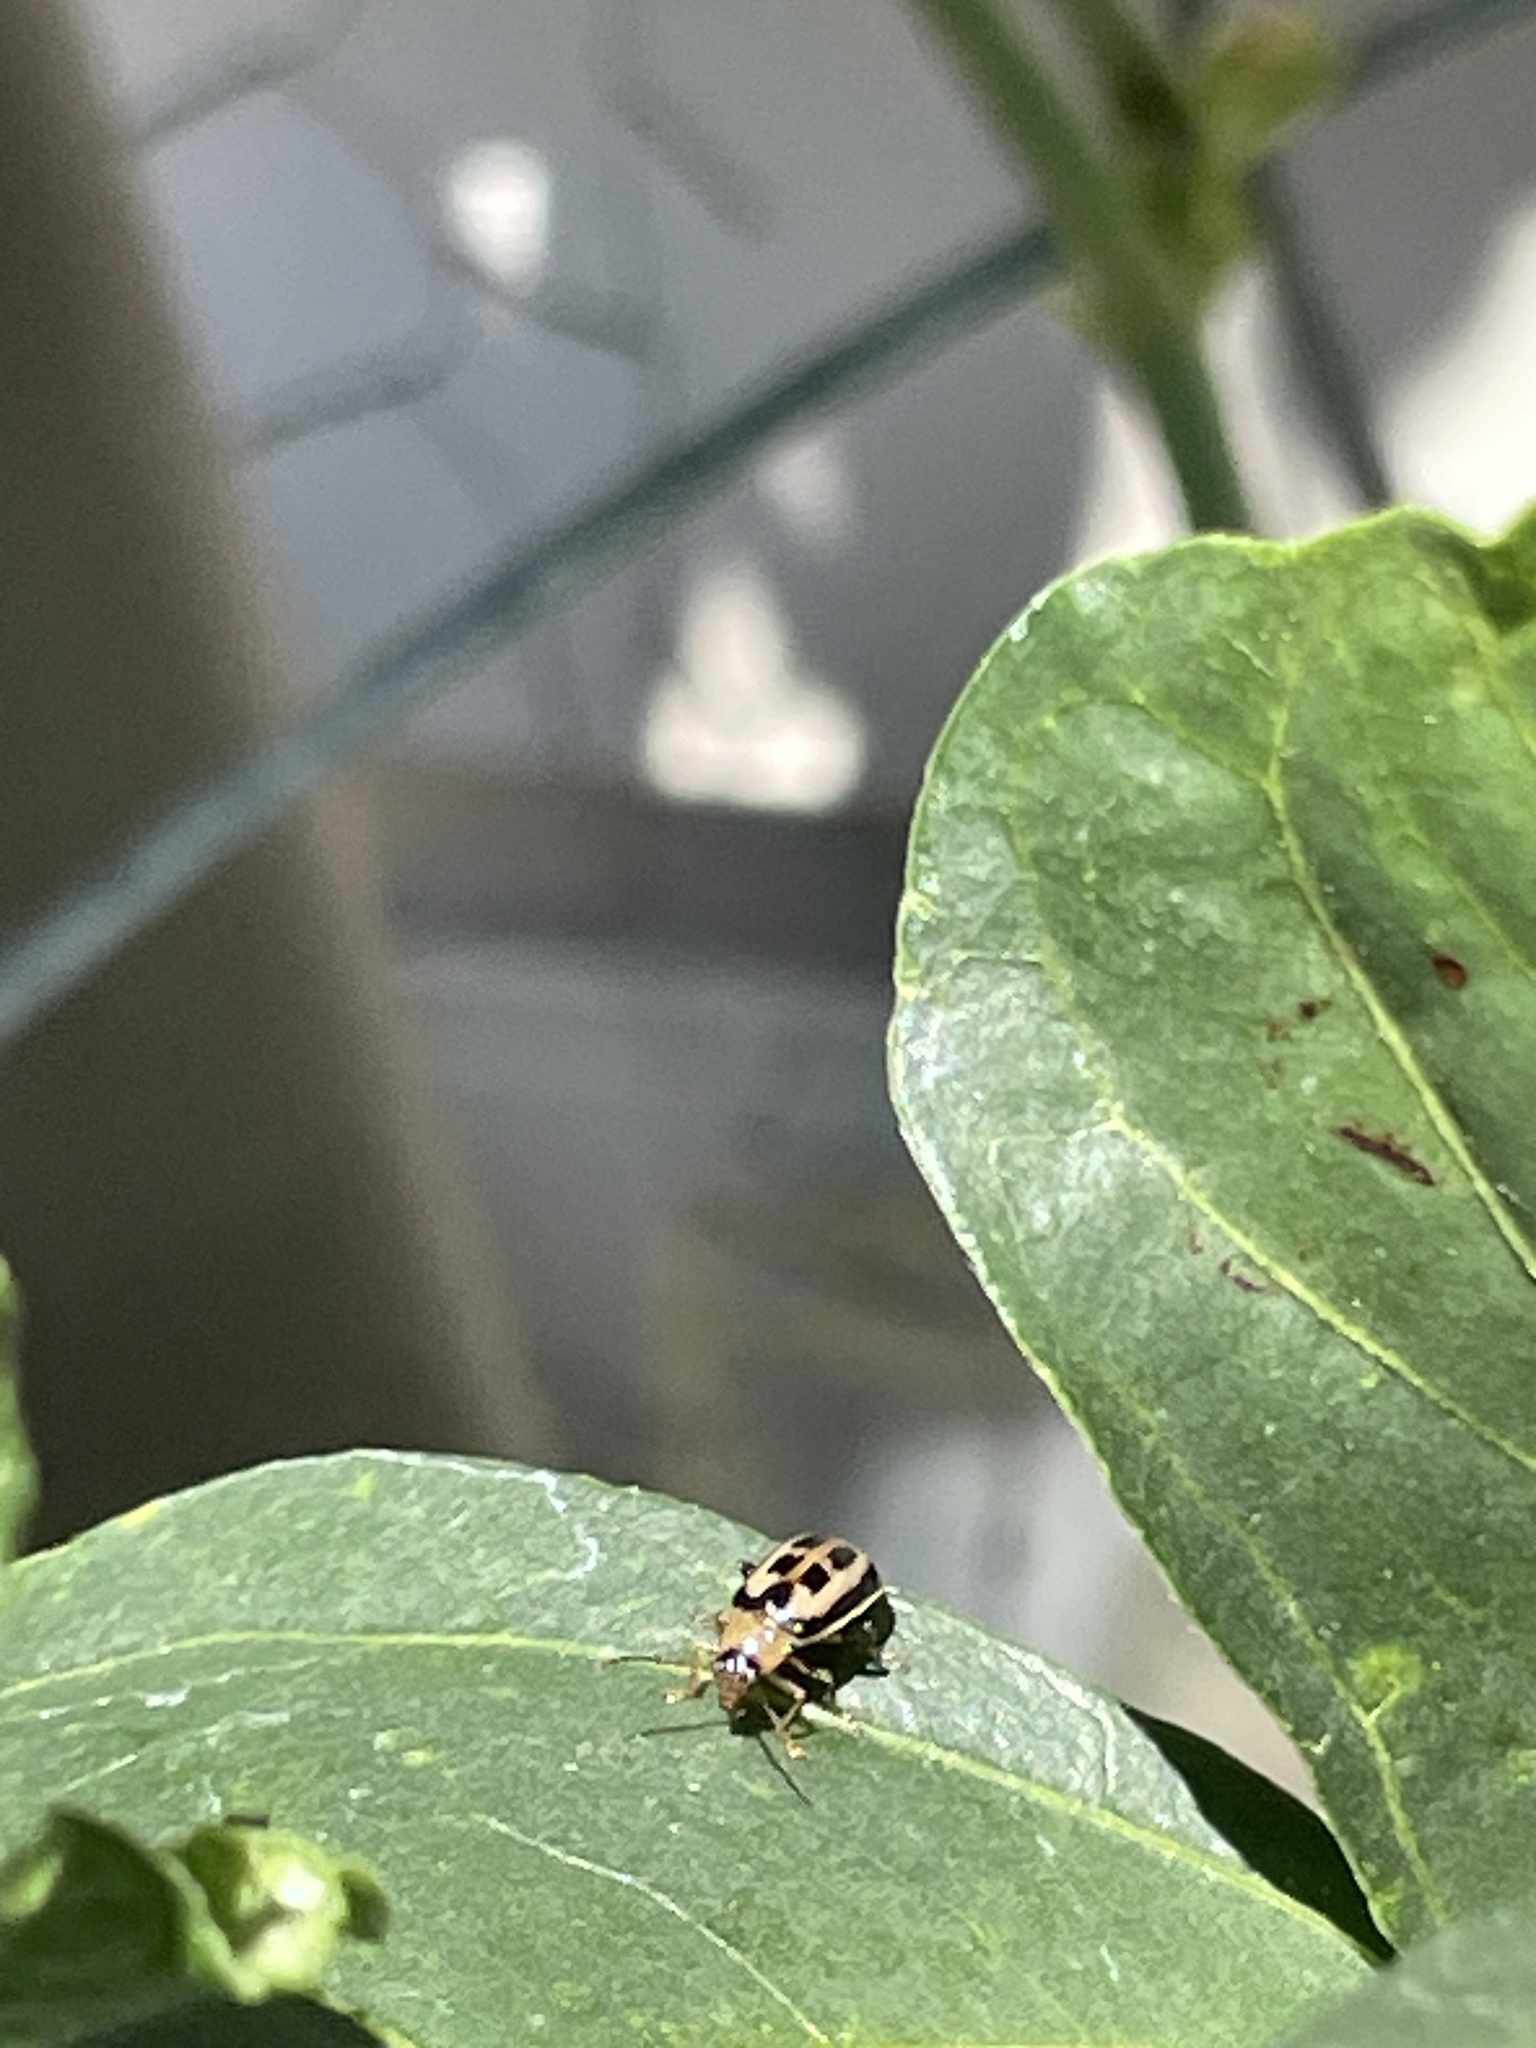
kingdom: Animalia
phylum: Arthropoda
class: Insecta
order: Coleoptera
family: Chrysomelidae
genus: Cerotoma
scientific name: Cerotoma trifurcata
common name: Bean leaf beetle
